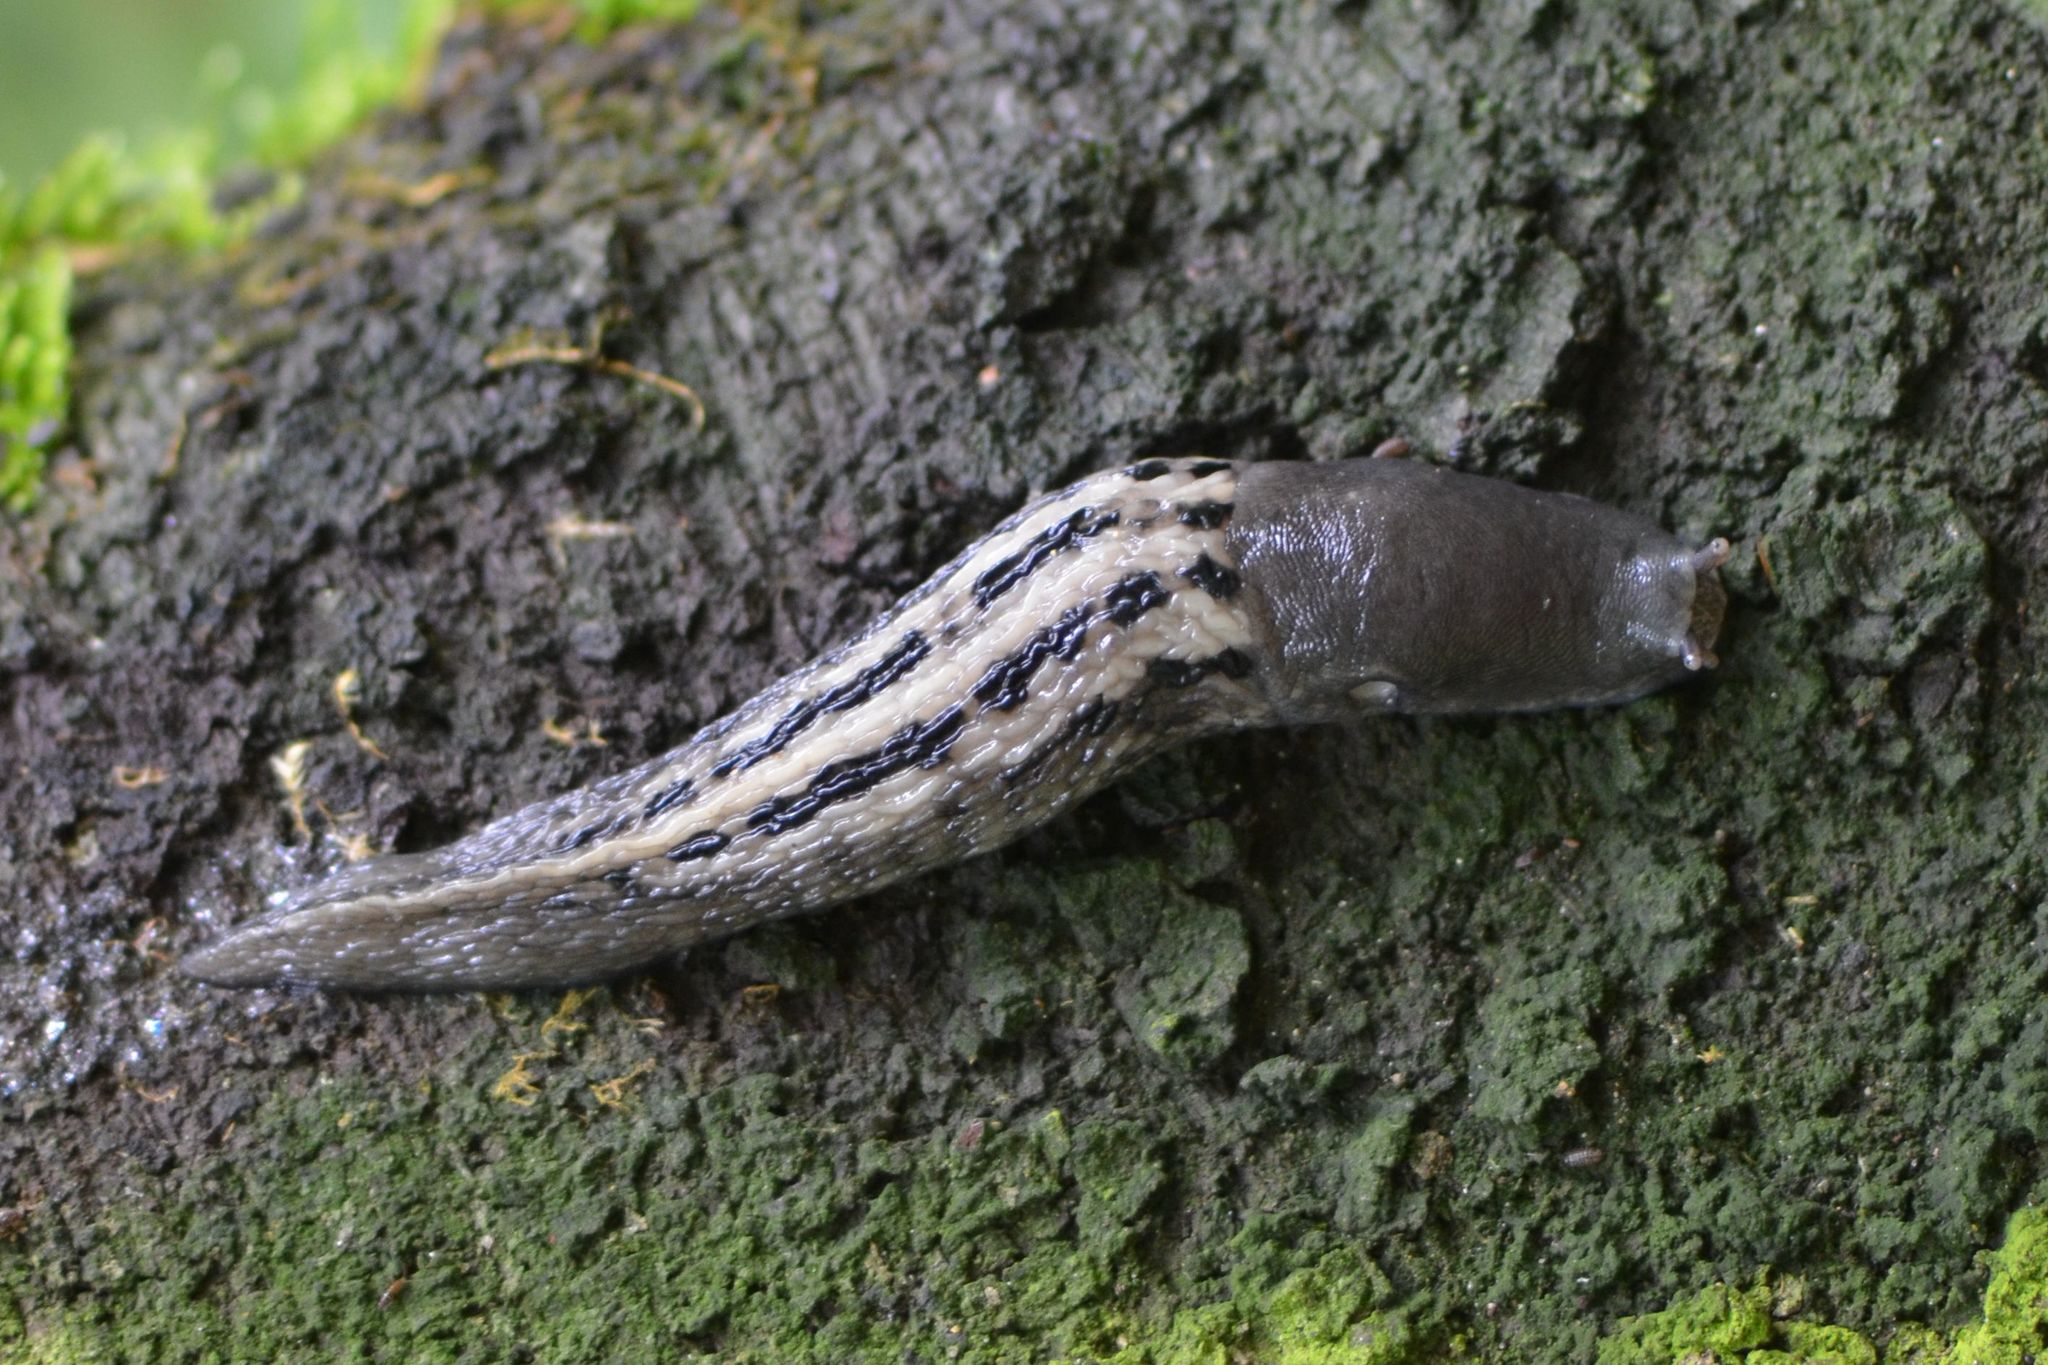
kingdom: Animalia
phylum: Mollusca
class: Gastropoda
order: Stylommatophora
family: Limacidae
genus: Limax
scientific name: Limax cinereoniger
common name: Ash-black slug
